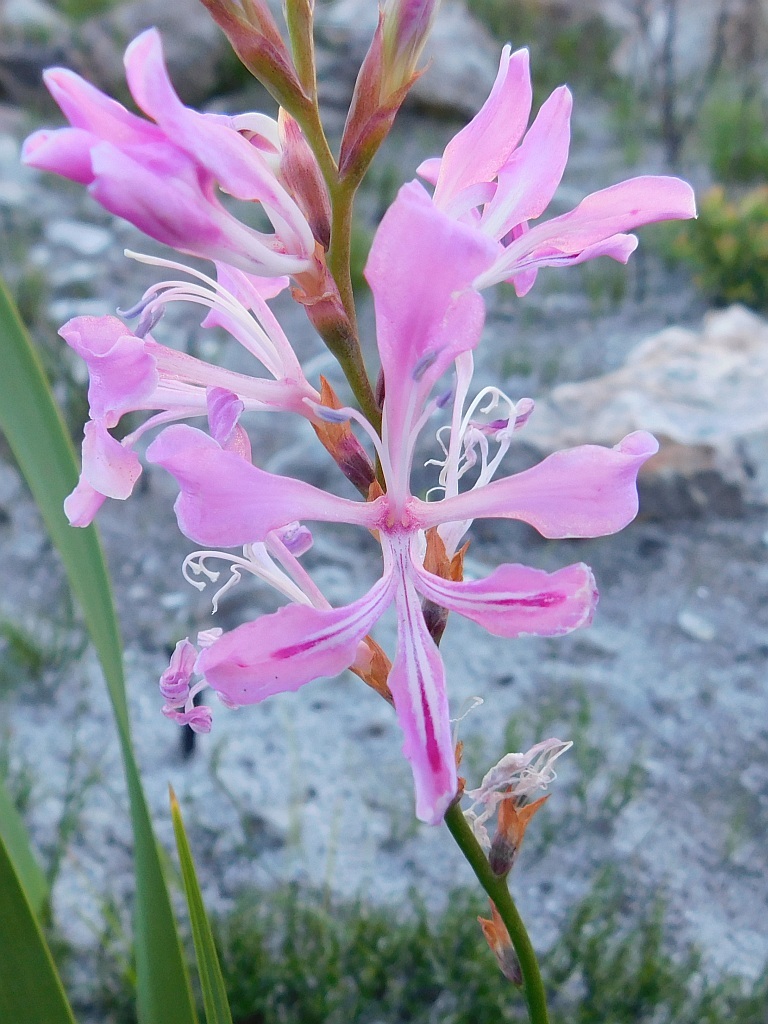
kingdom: Plantae
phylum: Tracheophyta
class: Liliopsida
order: Asparagales
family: Iridaceae
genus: Tritoniopsis
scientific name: Tritoniopsis lata
